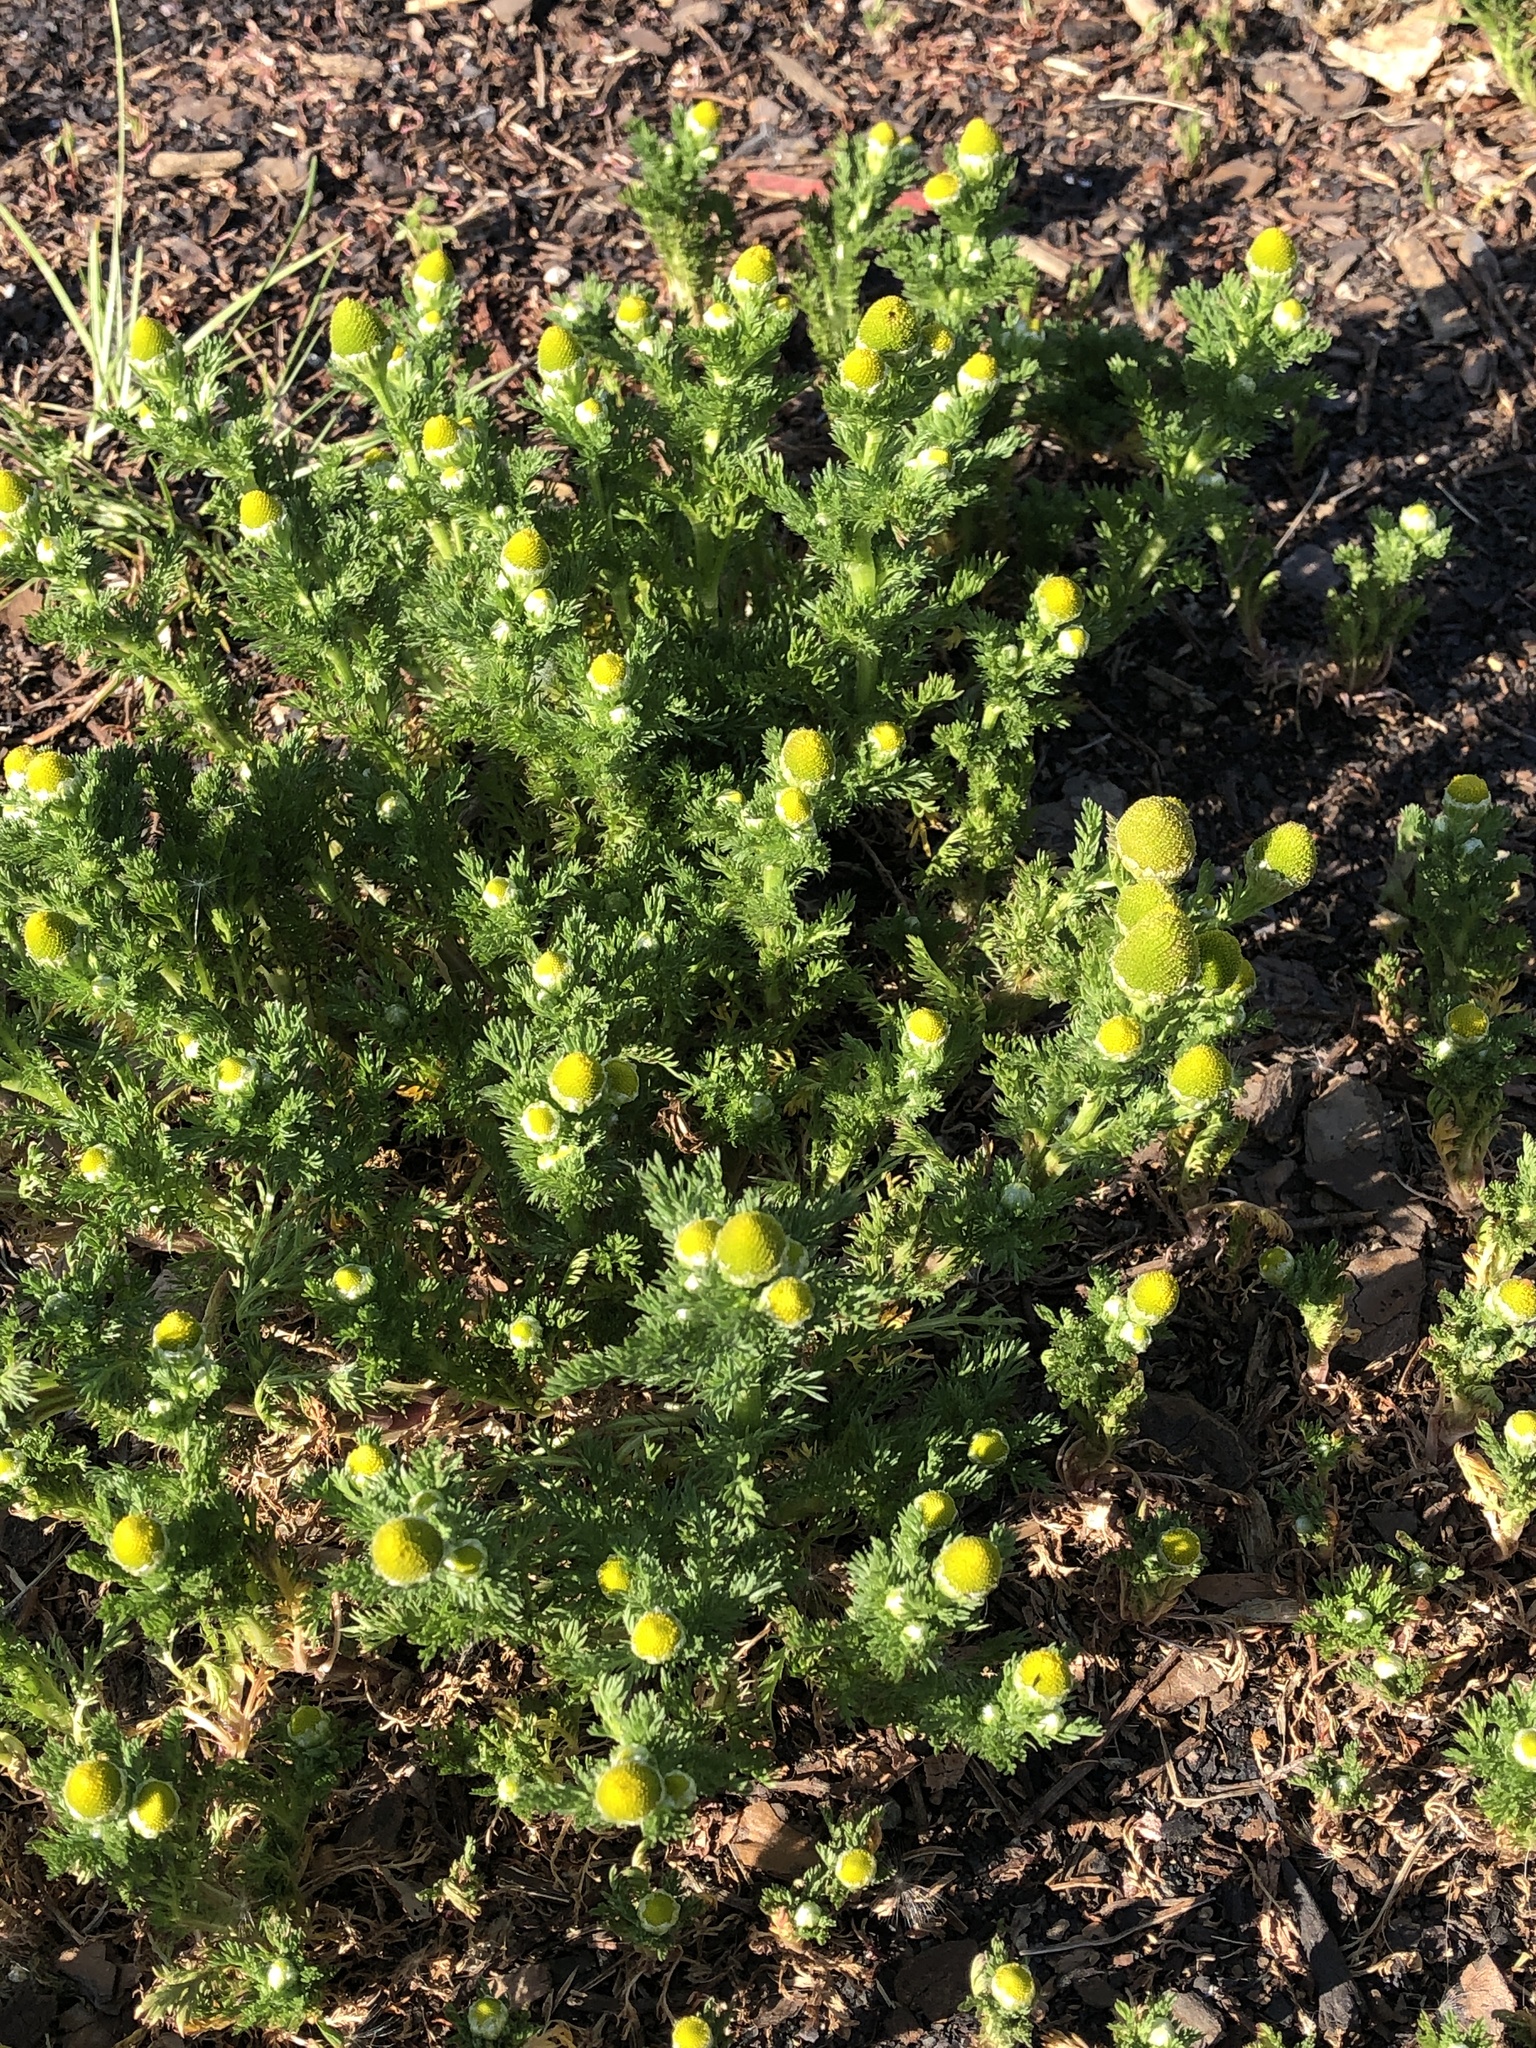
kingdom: Plantae
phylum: Tracheophyta
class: Magnoliopsida
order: Asterales
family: Asteraceae
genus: Matricaria
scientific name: Matricaria discoidea
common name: Disc mayweed
